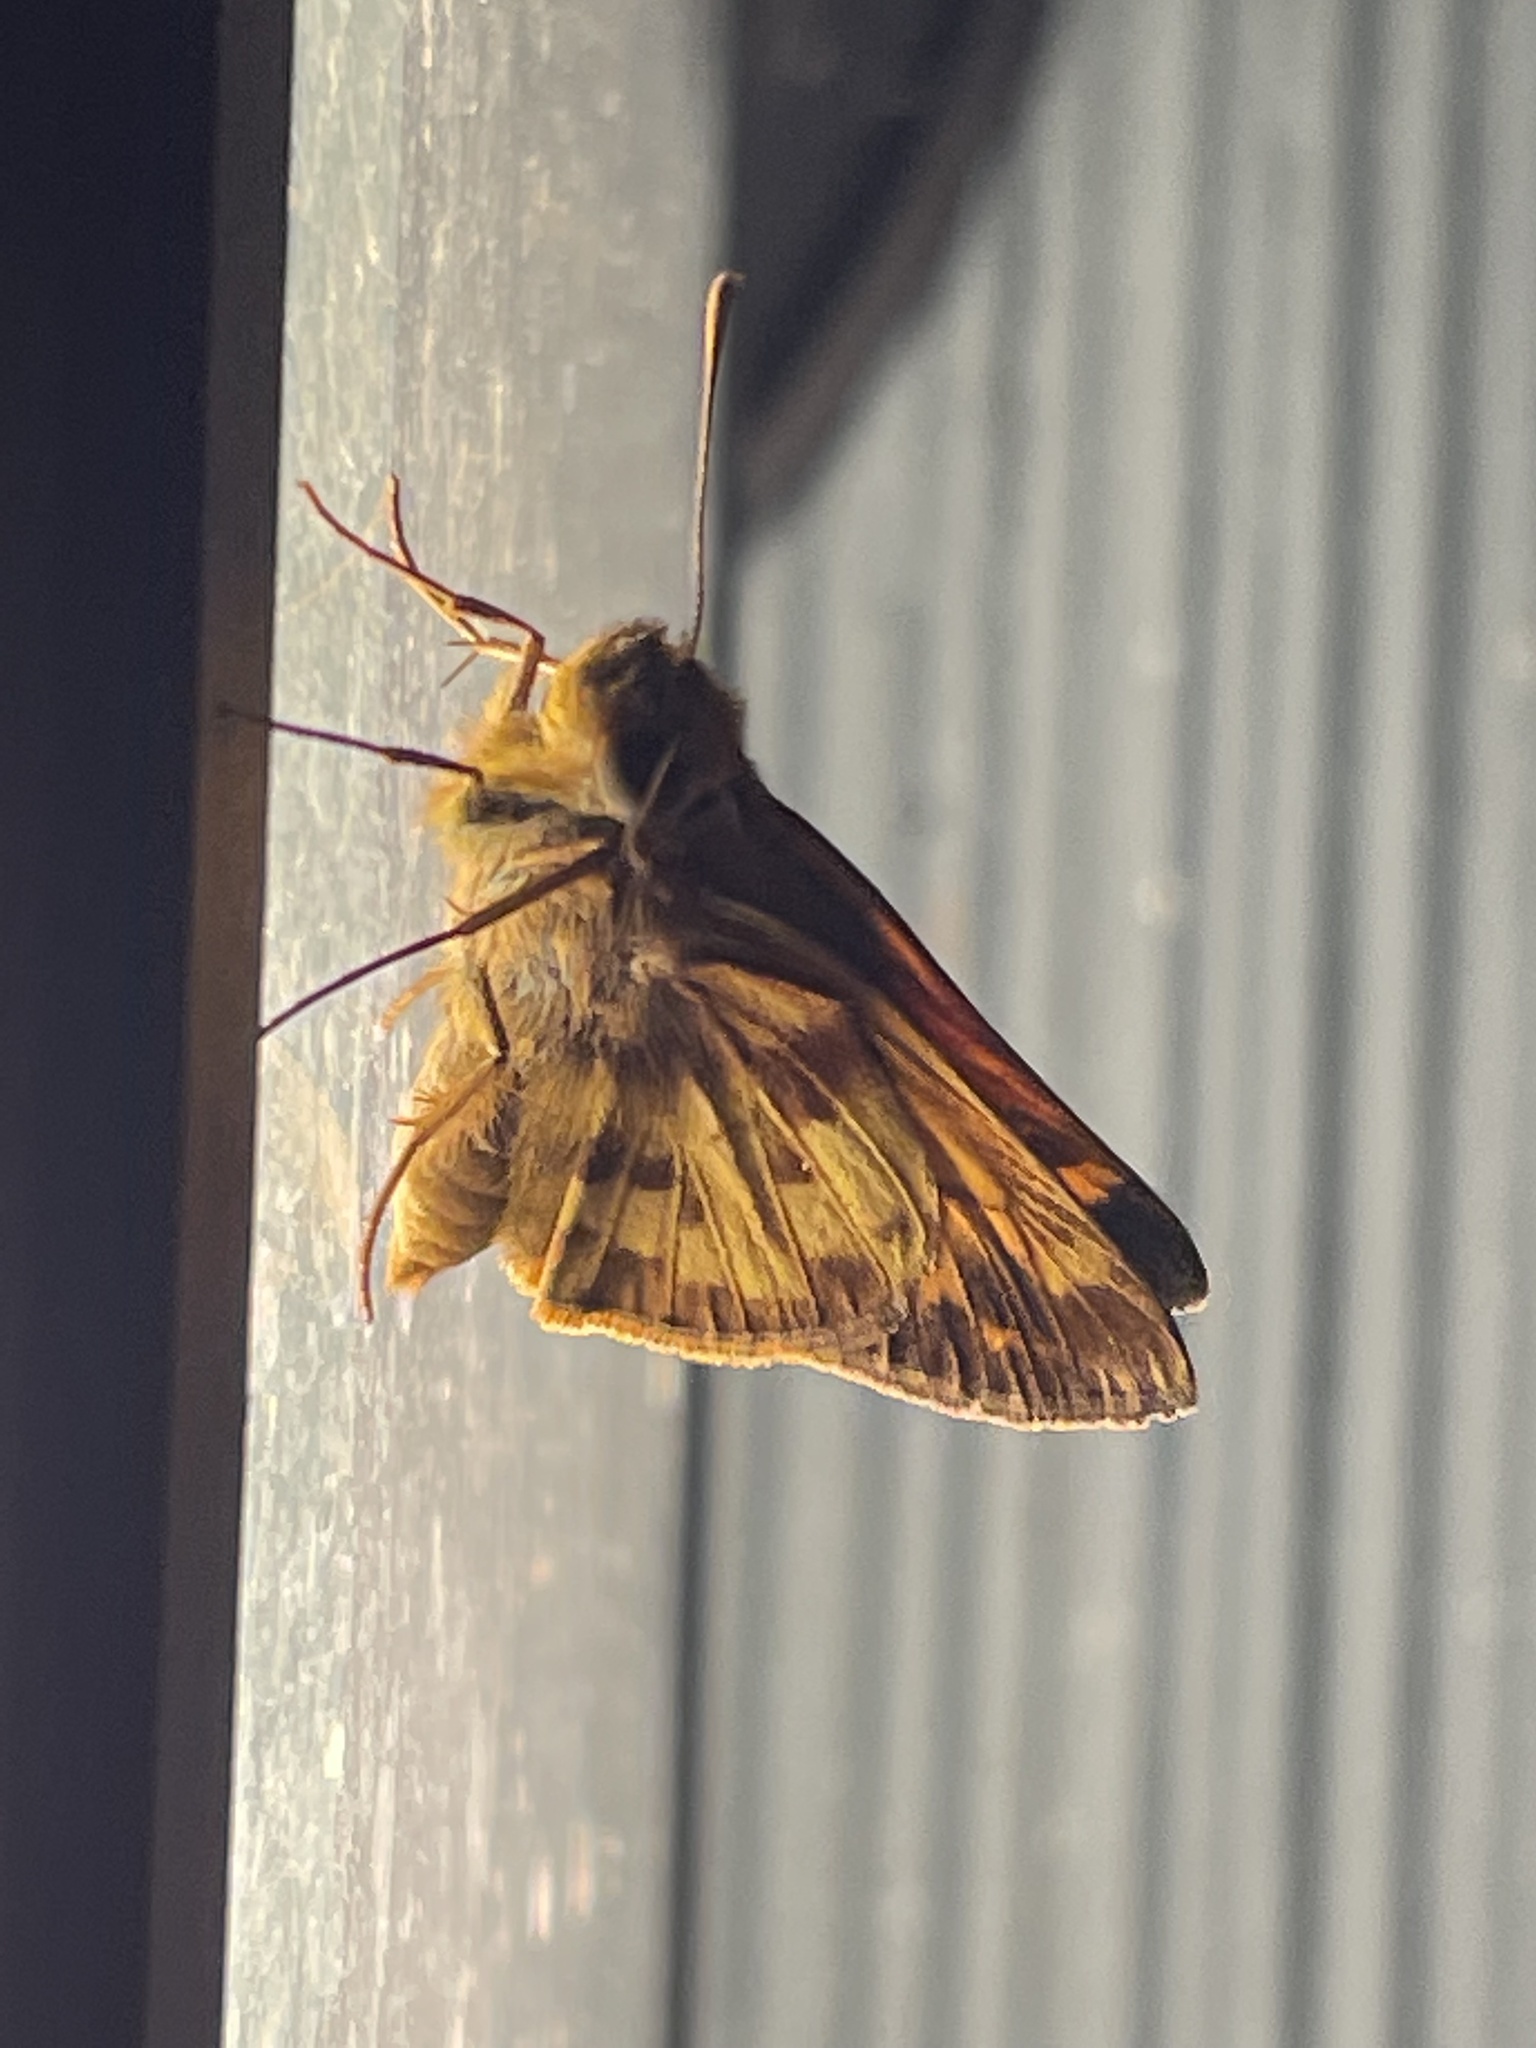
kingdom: Animalia
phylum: Arthropoda
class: Insecta
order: Lepidoptera
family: Hesperiidae
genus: Lon
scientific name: Lon zabulon
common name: Zabulon skipper
